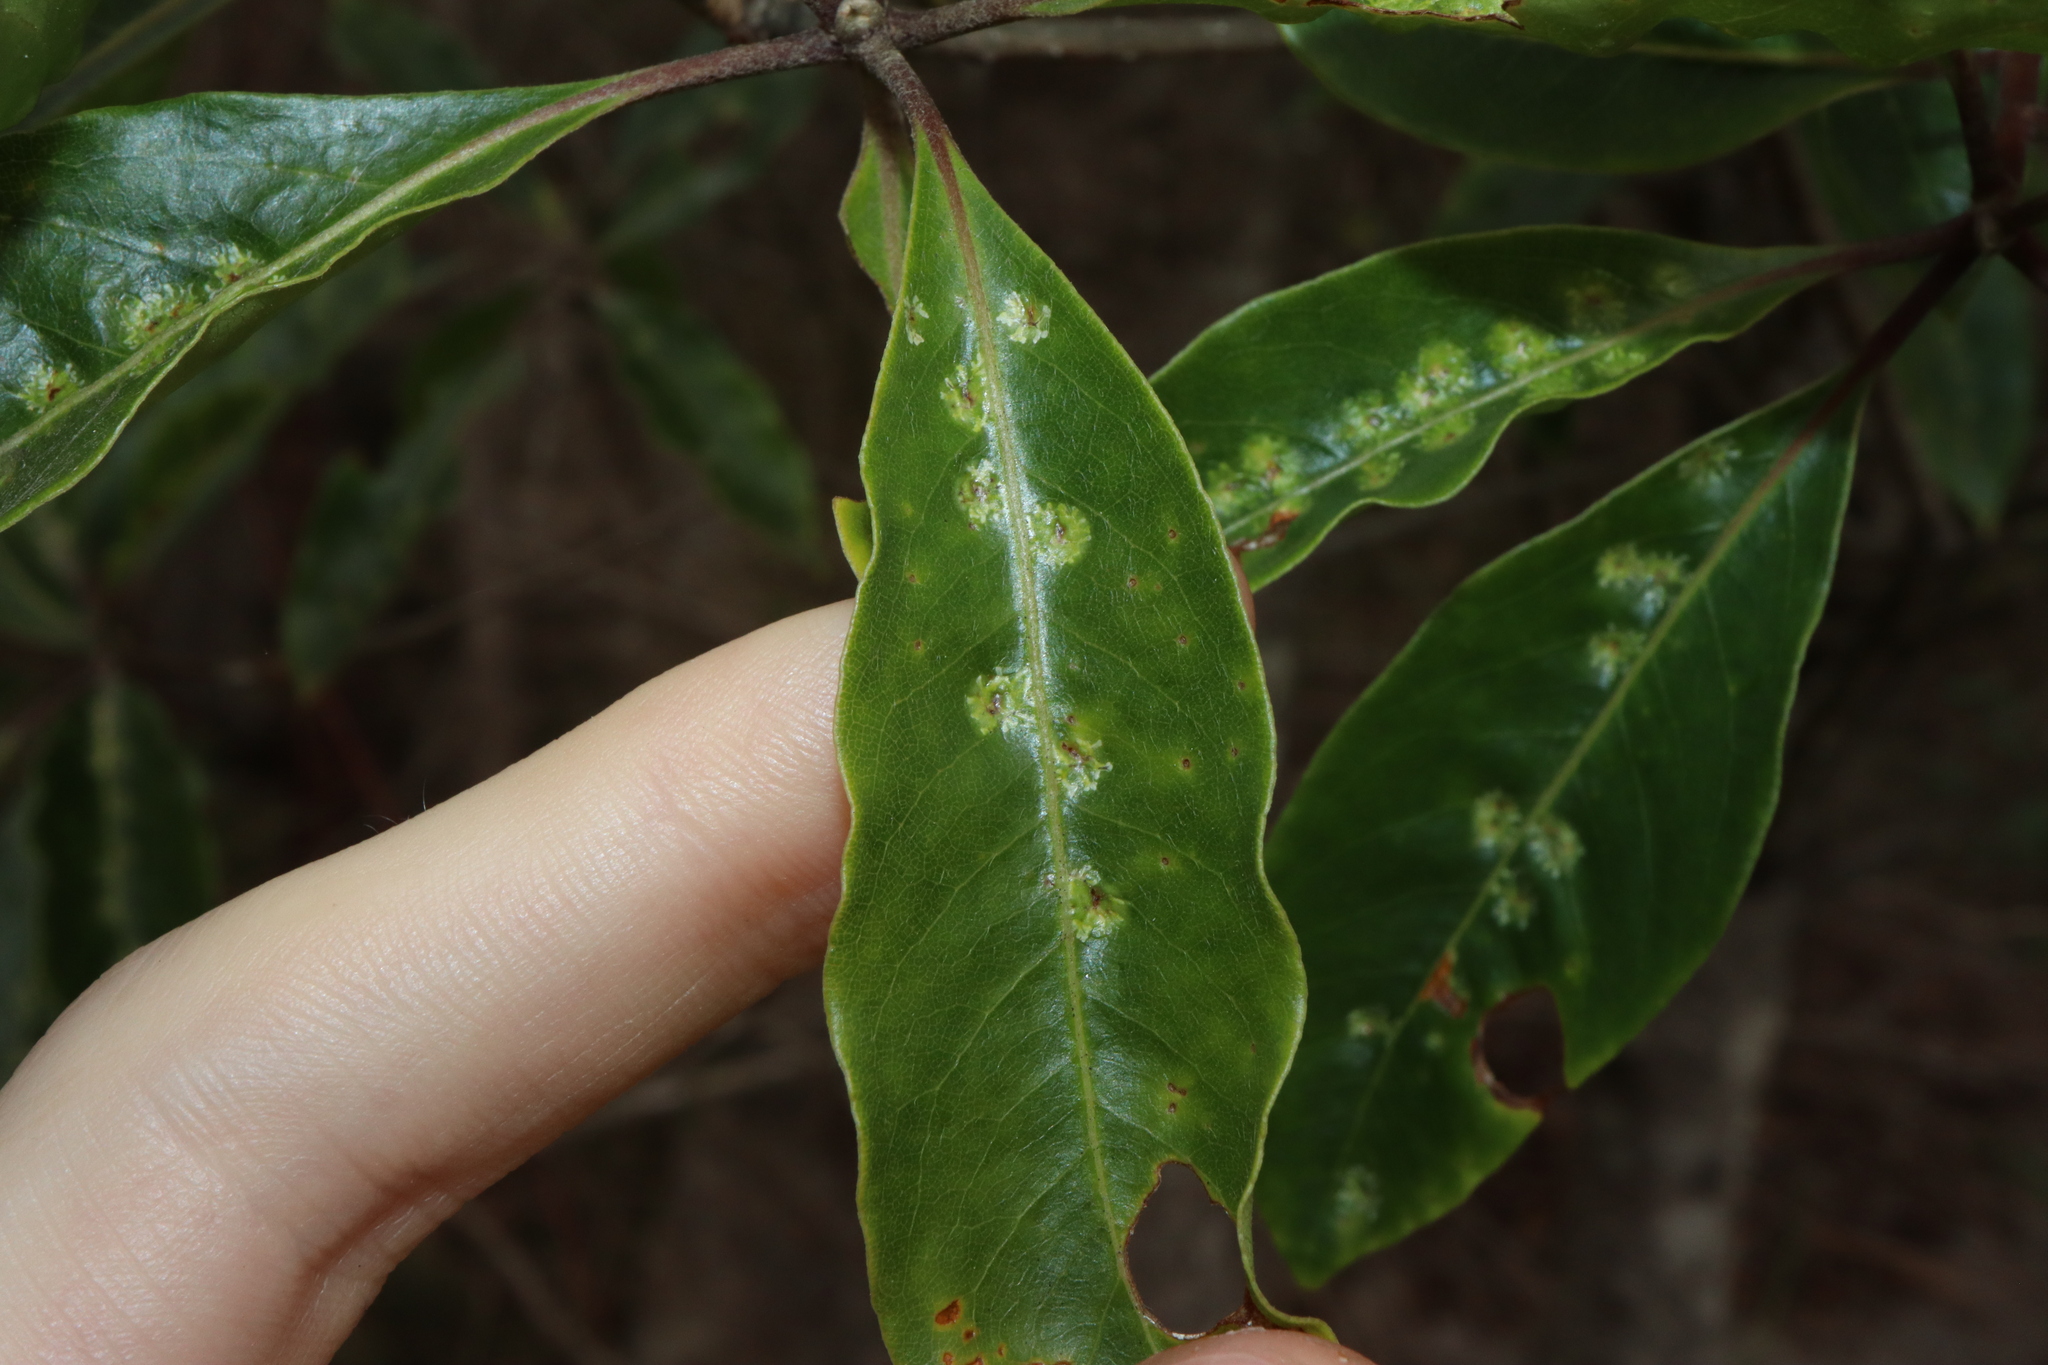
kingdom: Animalia
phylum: Arthropoda
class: Insecta
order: Diptera
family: Agromyzidae
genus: Phytoliriomyza
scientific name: Phytoliriomyza pittosporophylli
